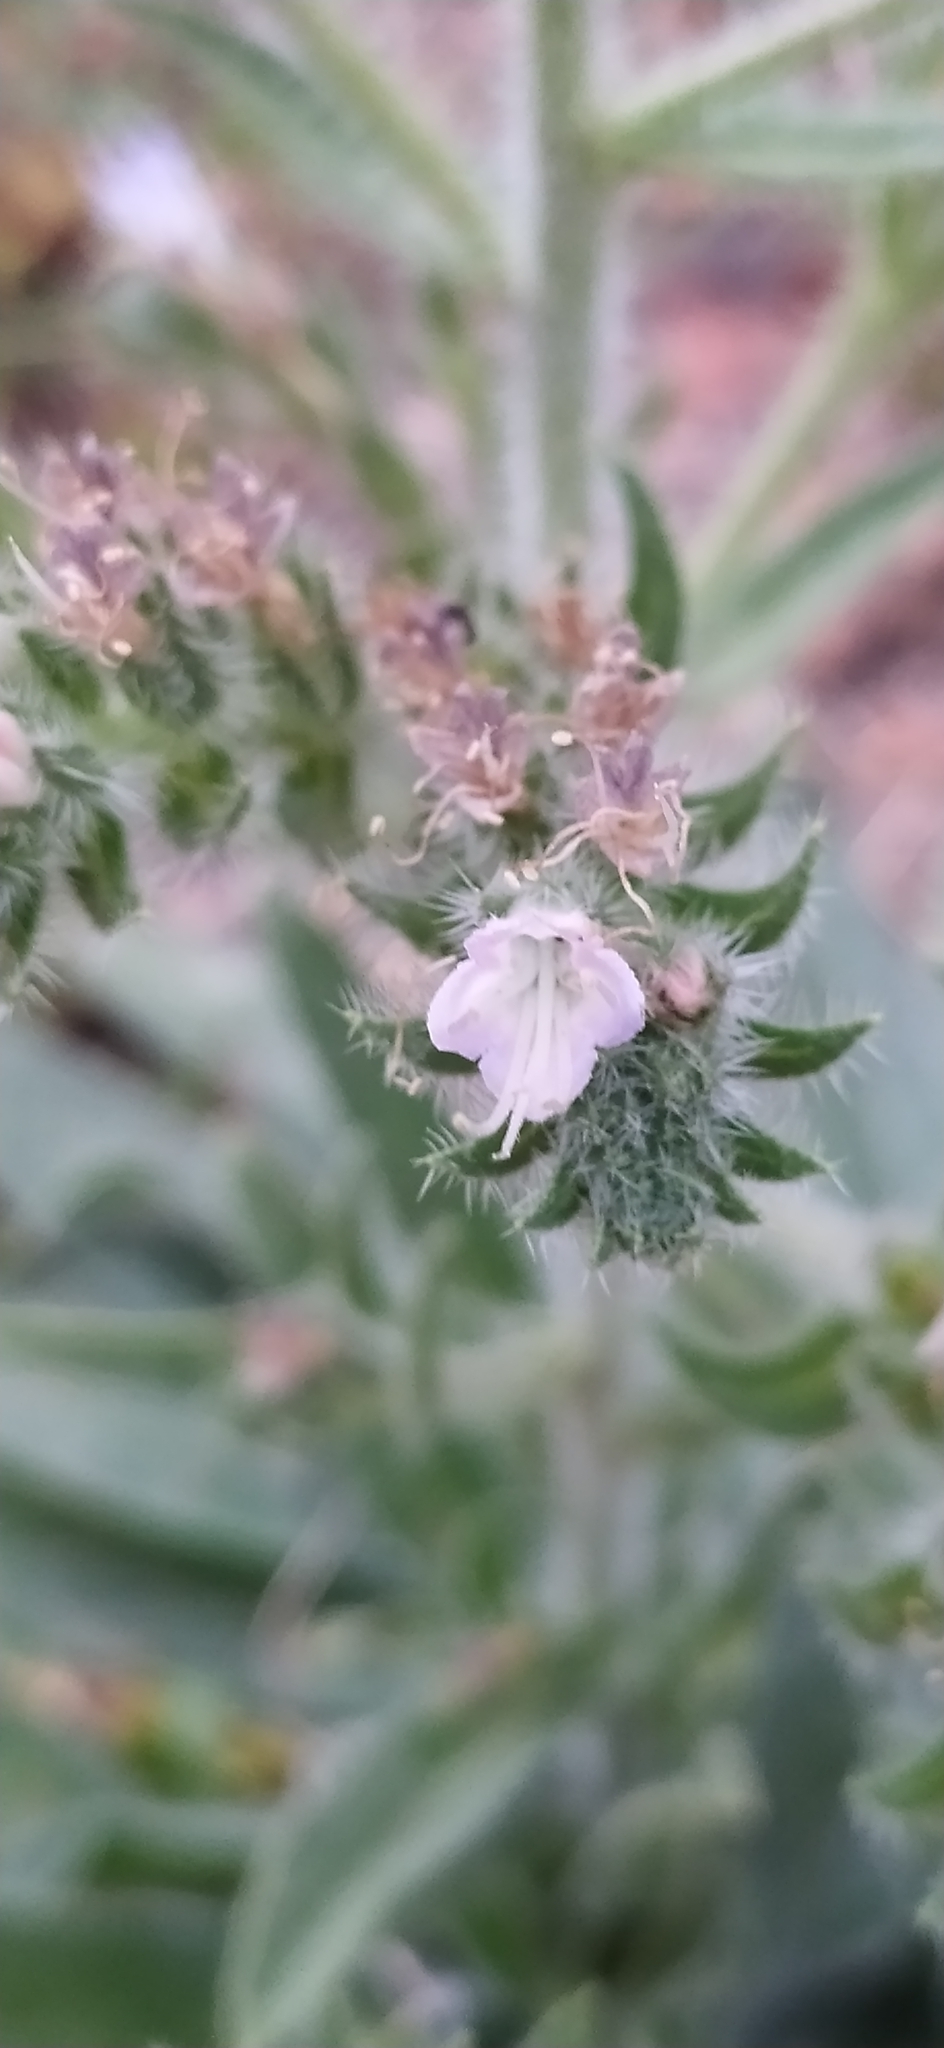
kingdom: Plantae
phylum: Tracheophyta
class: Magnoliopsida
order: Boraginales
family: Boraginaceae
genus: Echium
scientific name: Echium italicum
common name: Italian viper's bugloss
